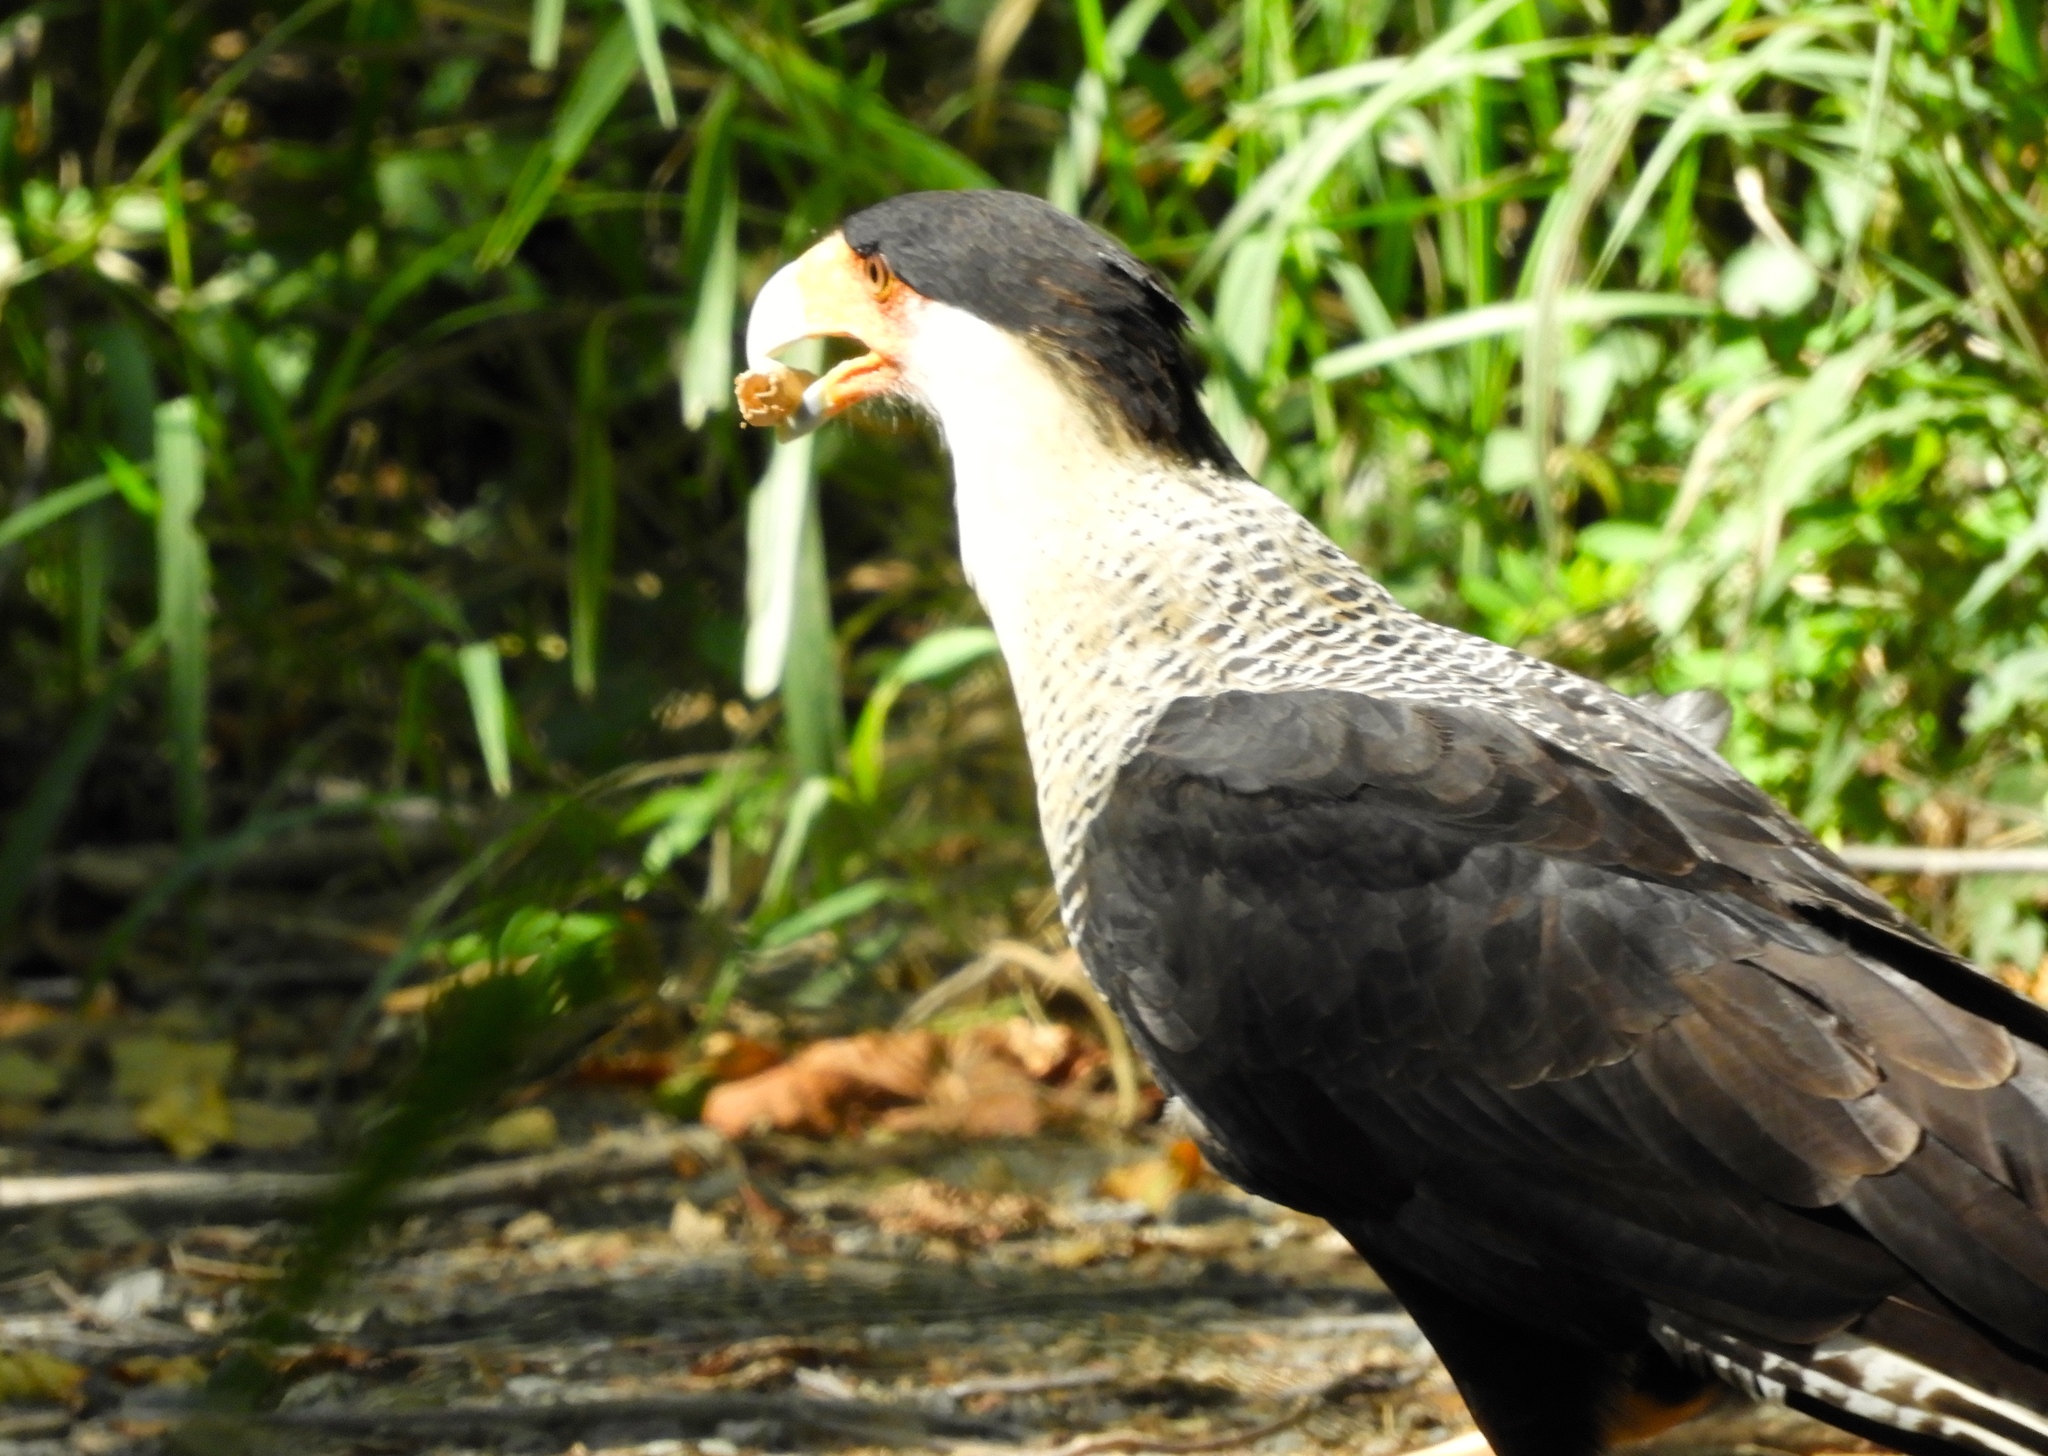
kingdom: Animalia
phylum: Chordata
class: Aves
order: Falconiformes
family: Falconidae
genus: Caracara
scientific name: Caracara plancus
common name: Southern caracara
